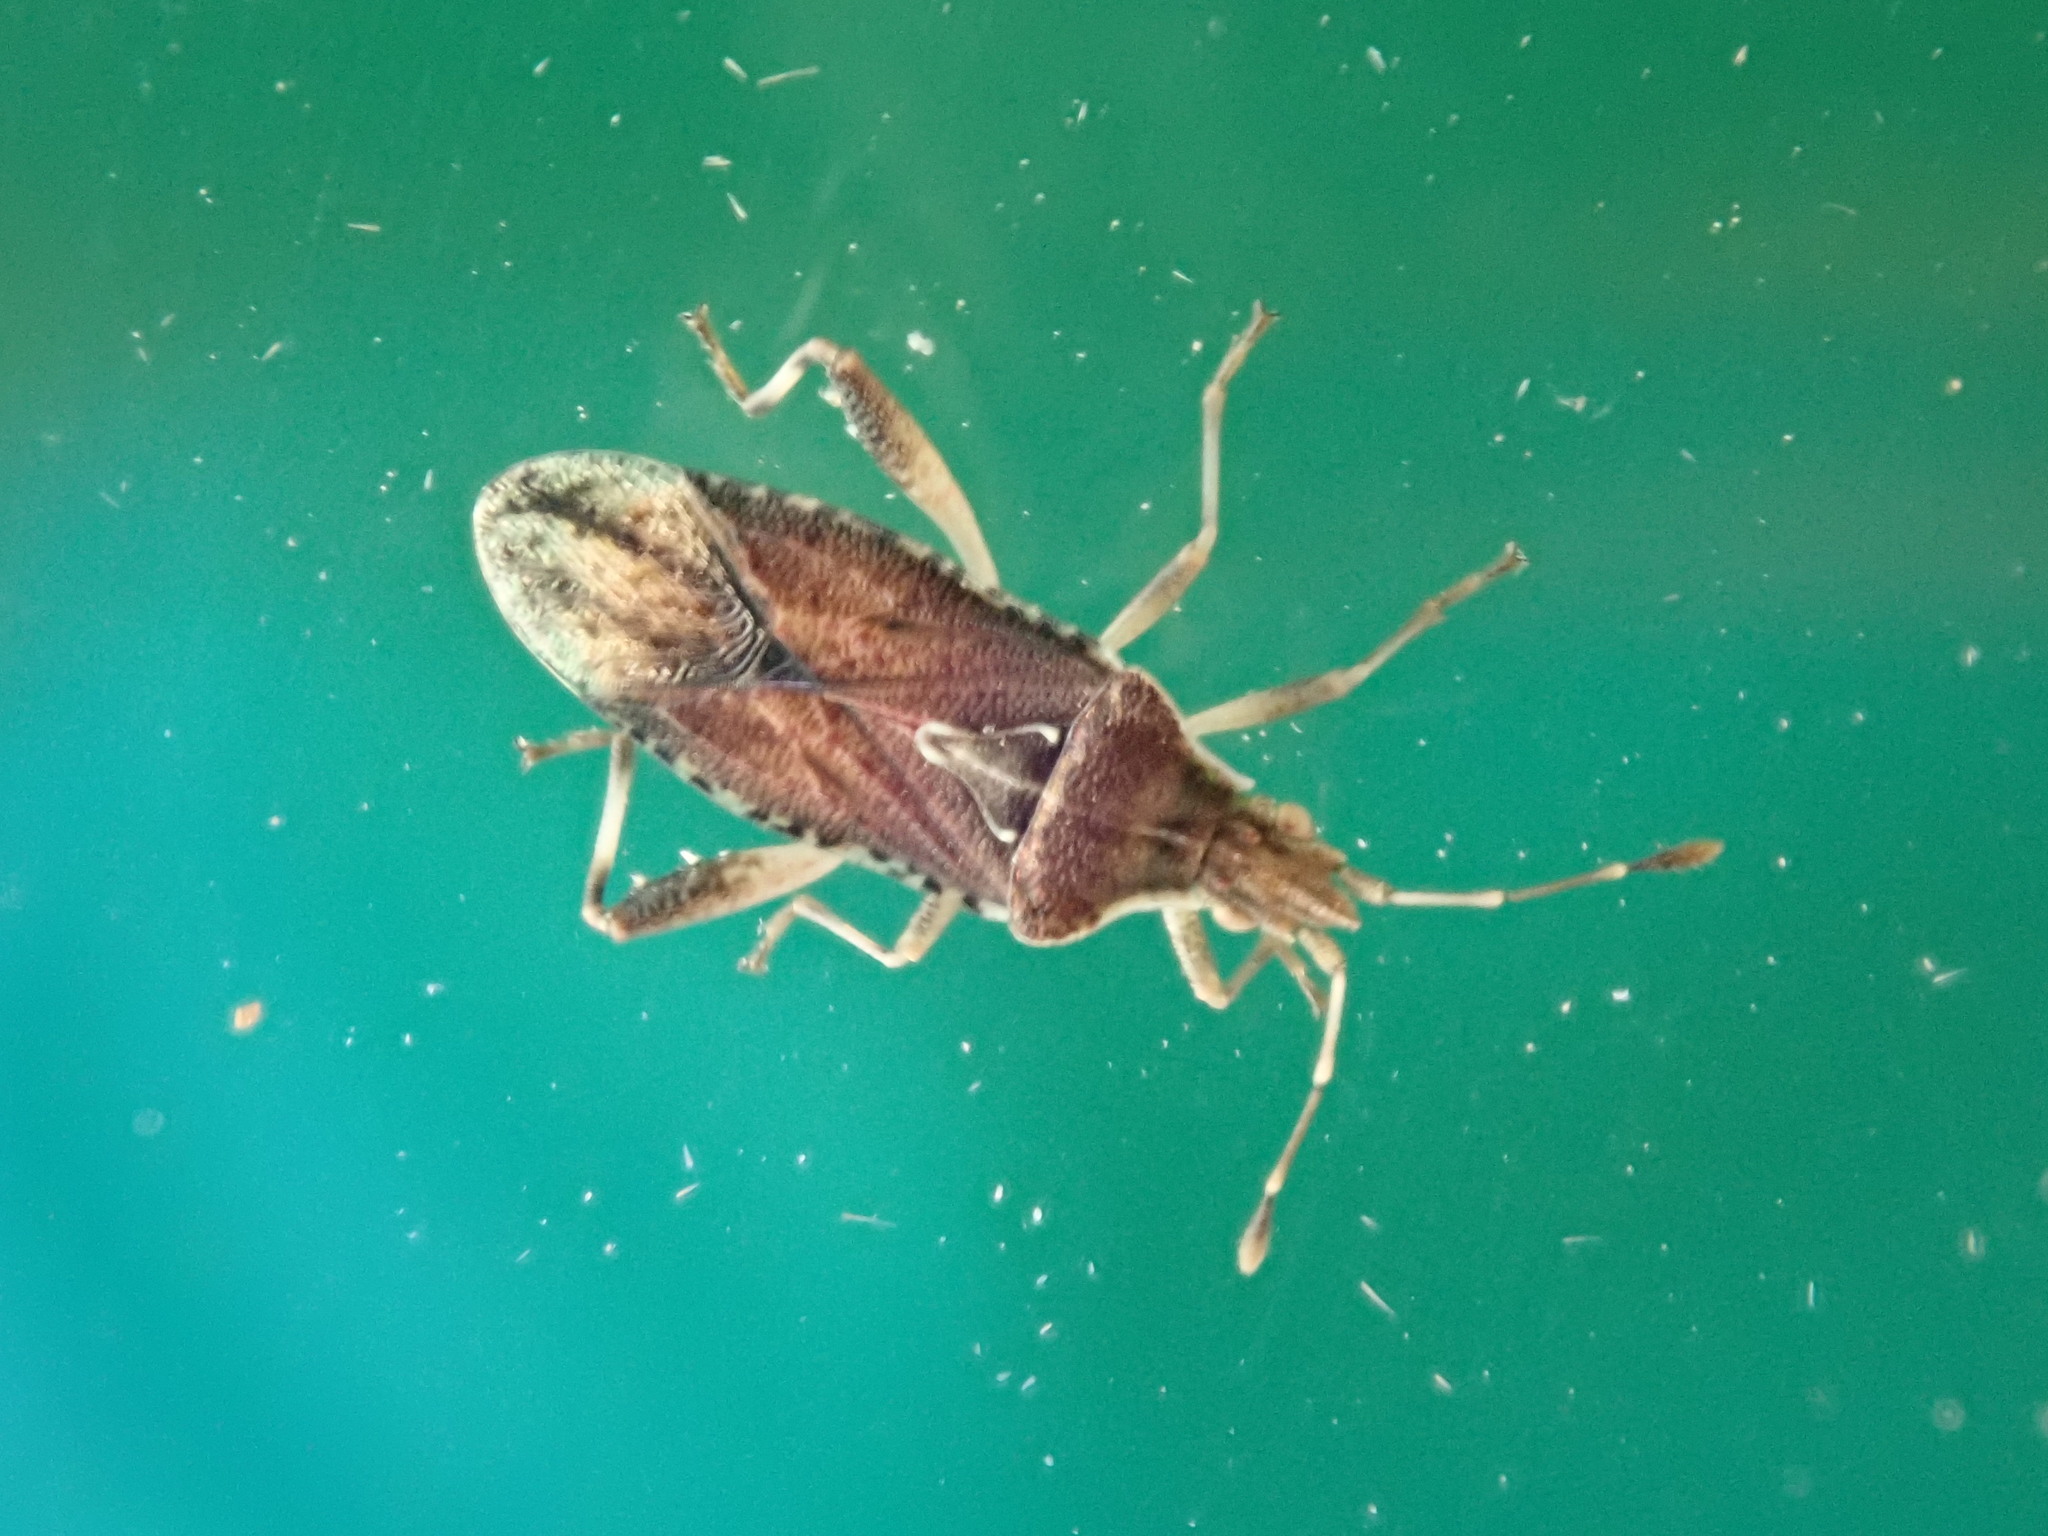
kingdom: Animalia
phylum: Arthropoda
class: Insecta
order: Hemiptera
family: Rhopalidae
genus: Harmostes
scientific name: Harmostes fraterculus
